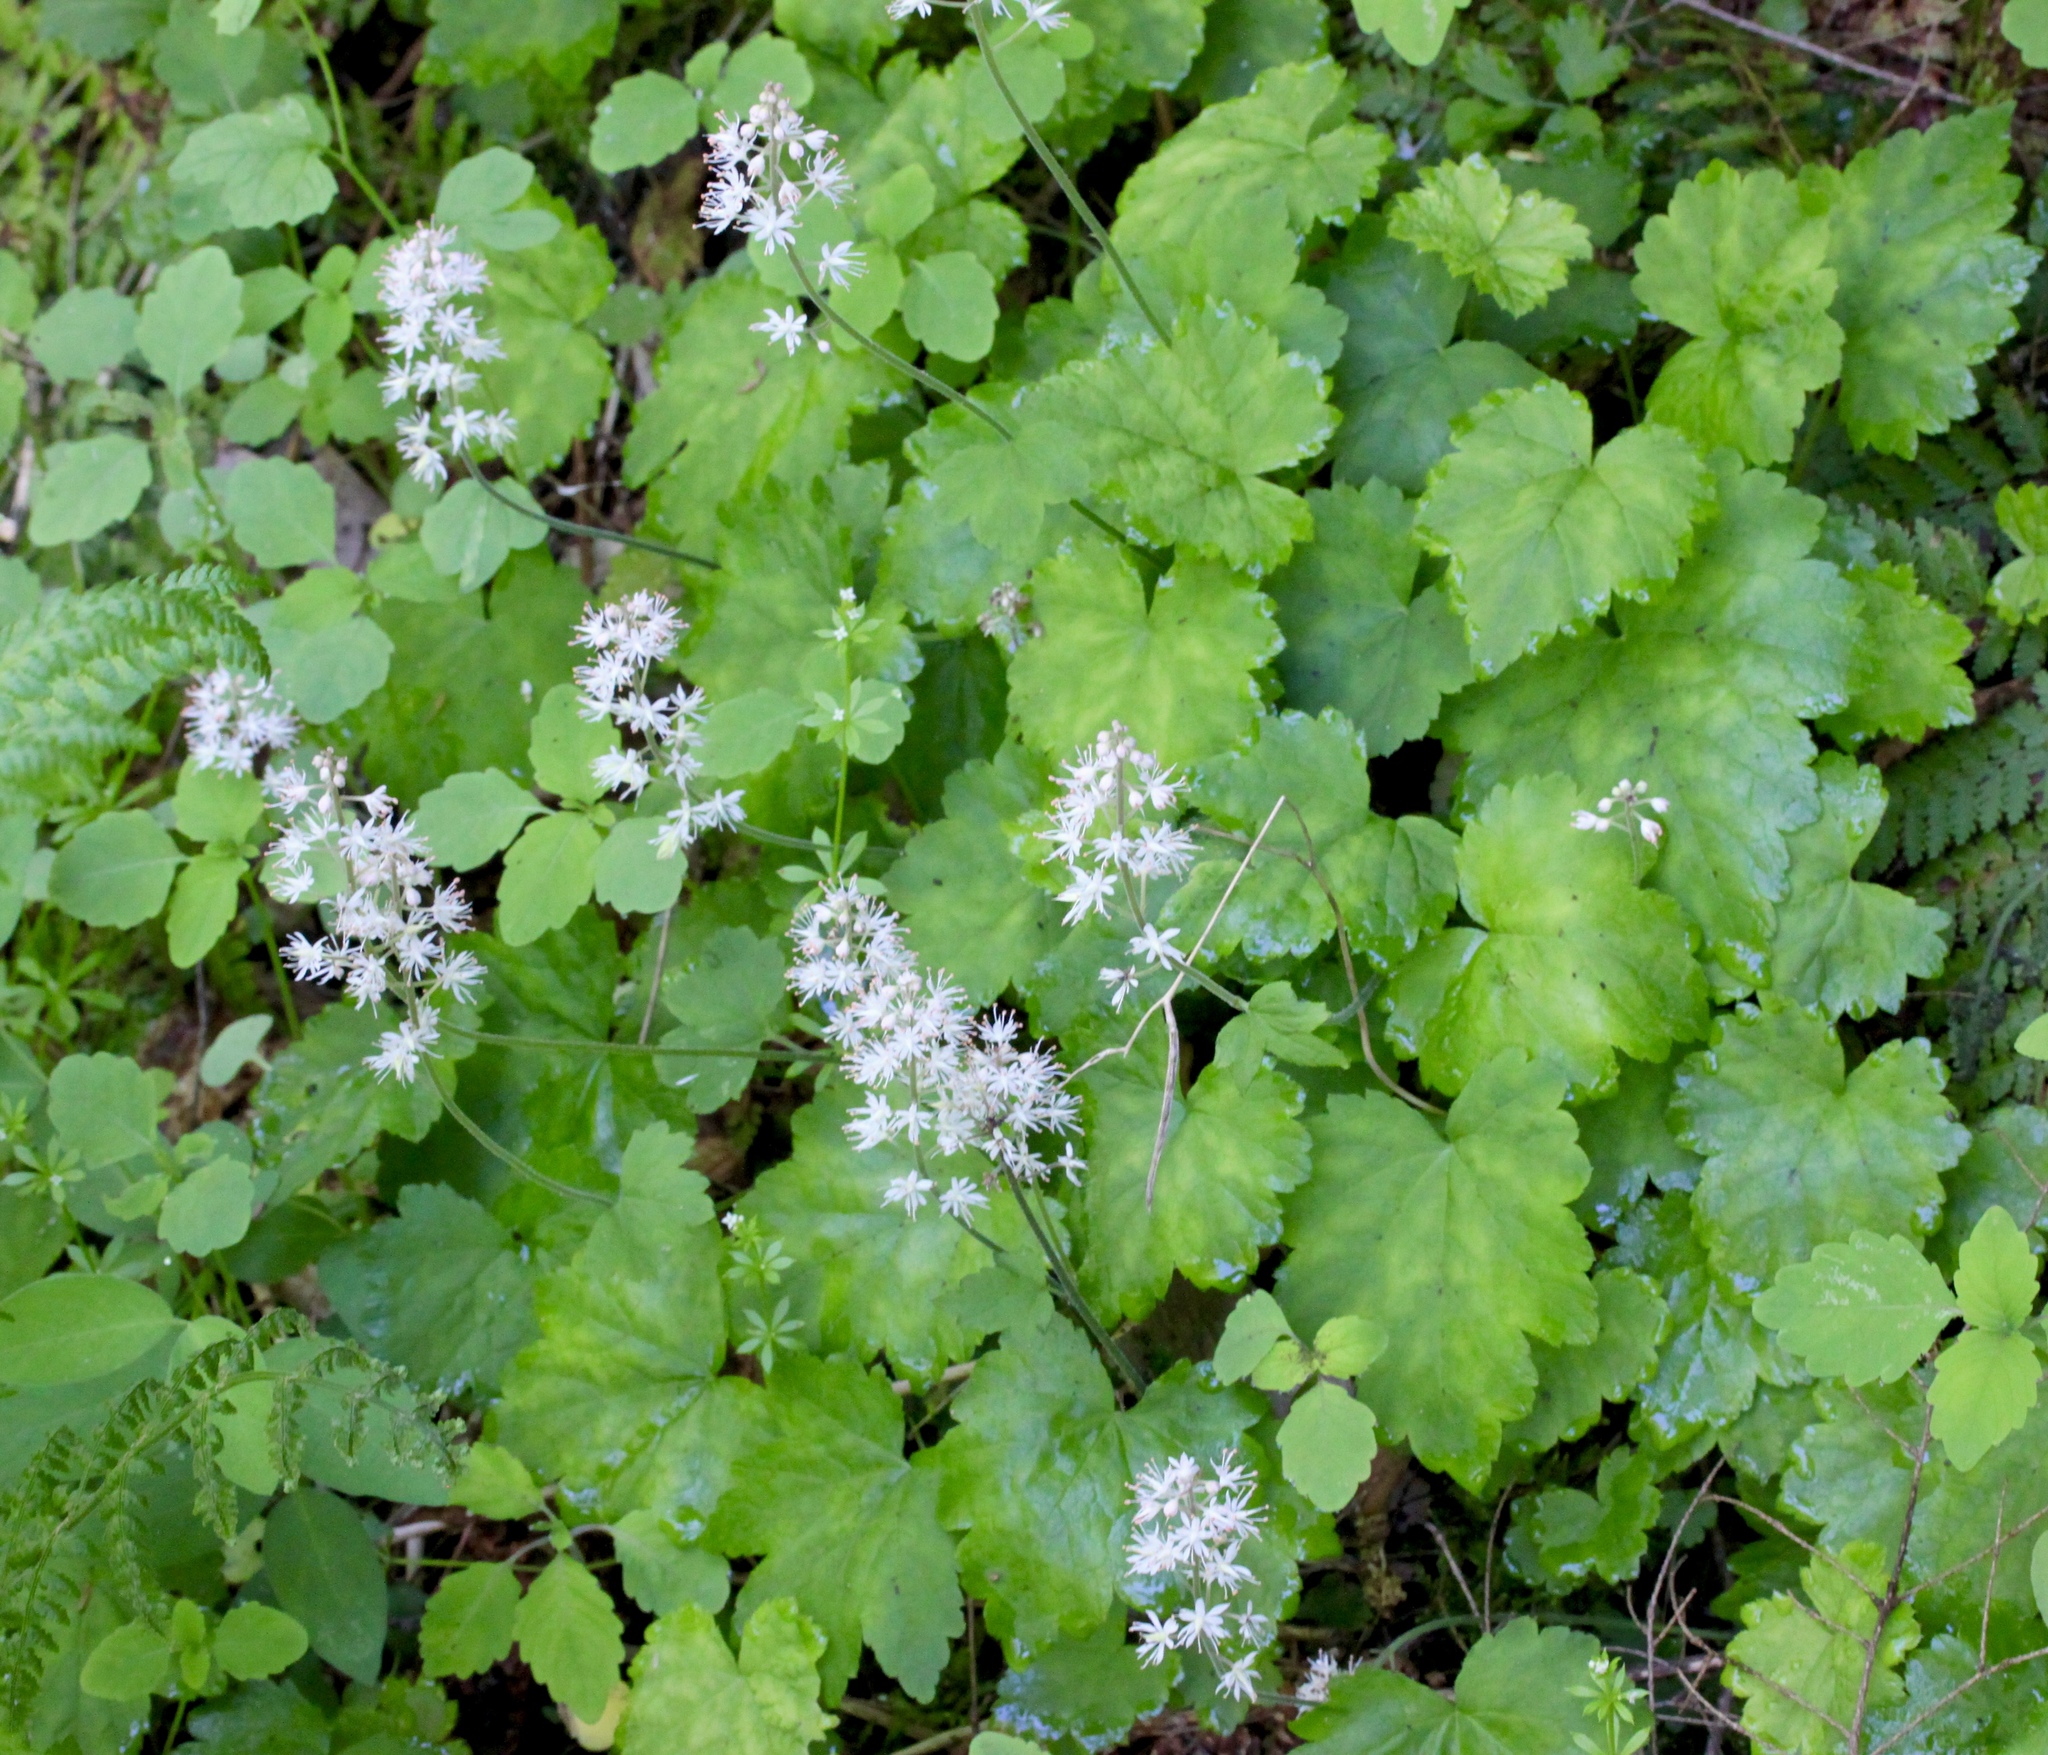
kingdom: Plantae
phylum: Tracheophyta
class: Magnoliopsida
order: Saxifragales
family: Saxifragaceae
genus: Tiarella
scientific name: Tiarella stolonifera
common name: Stoloniferous foamflower
